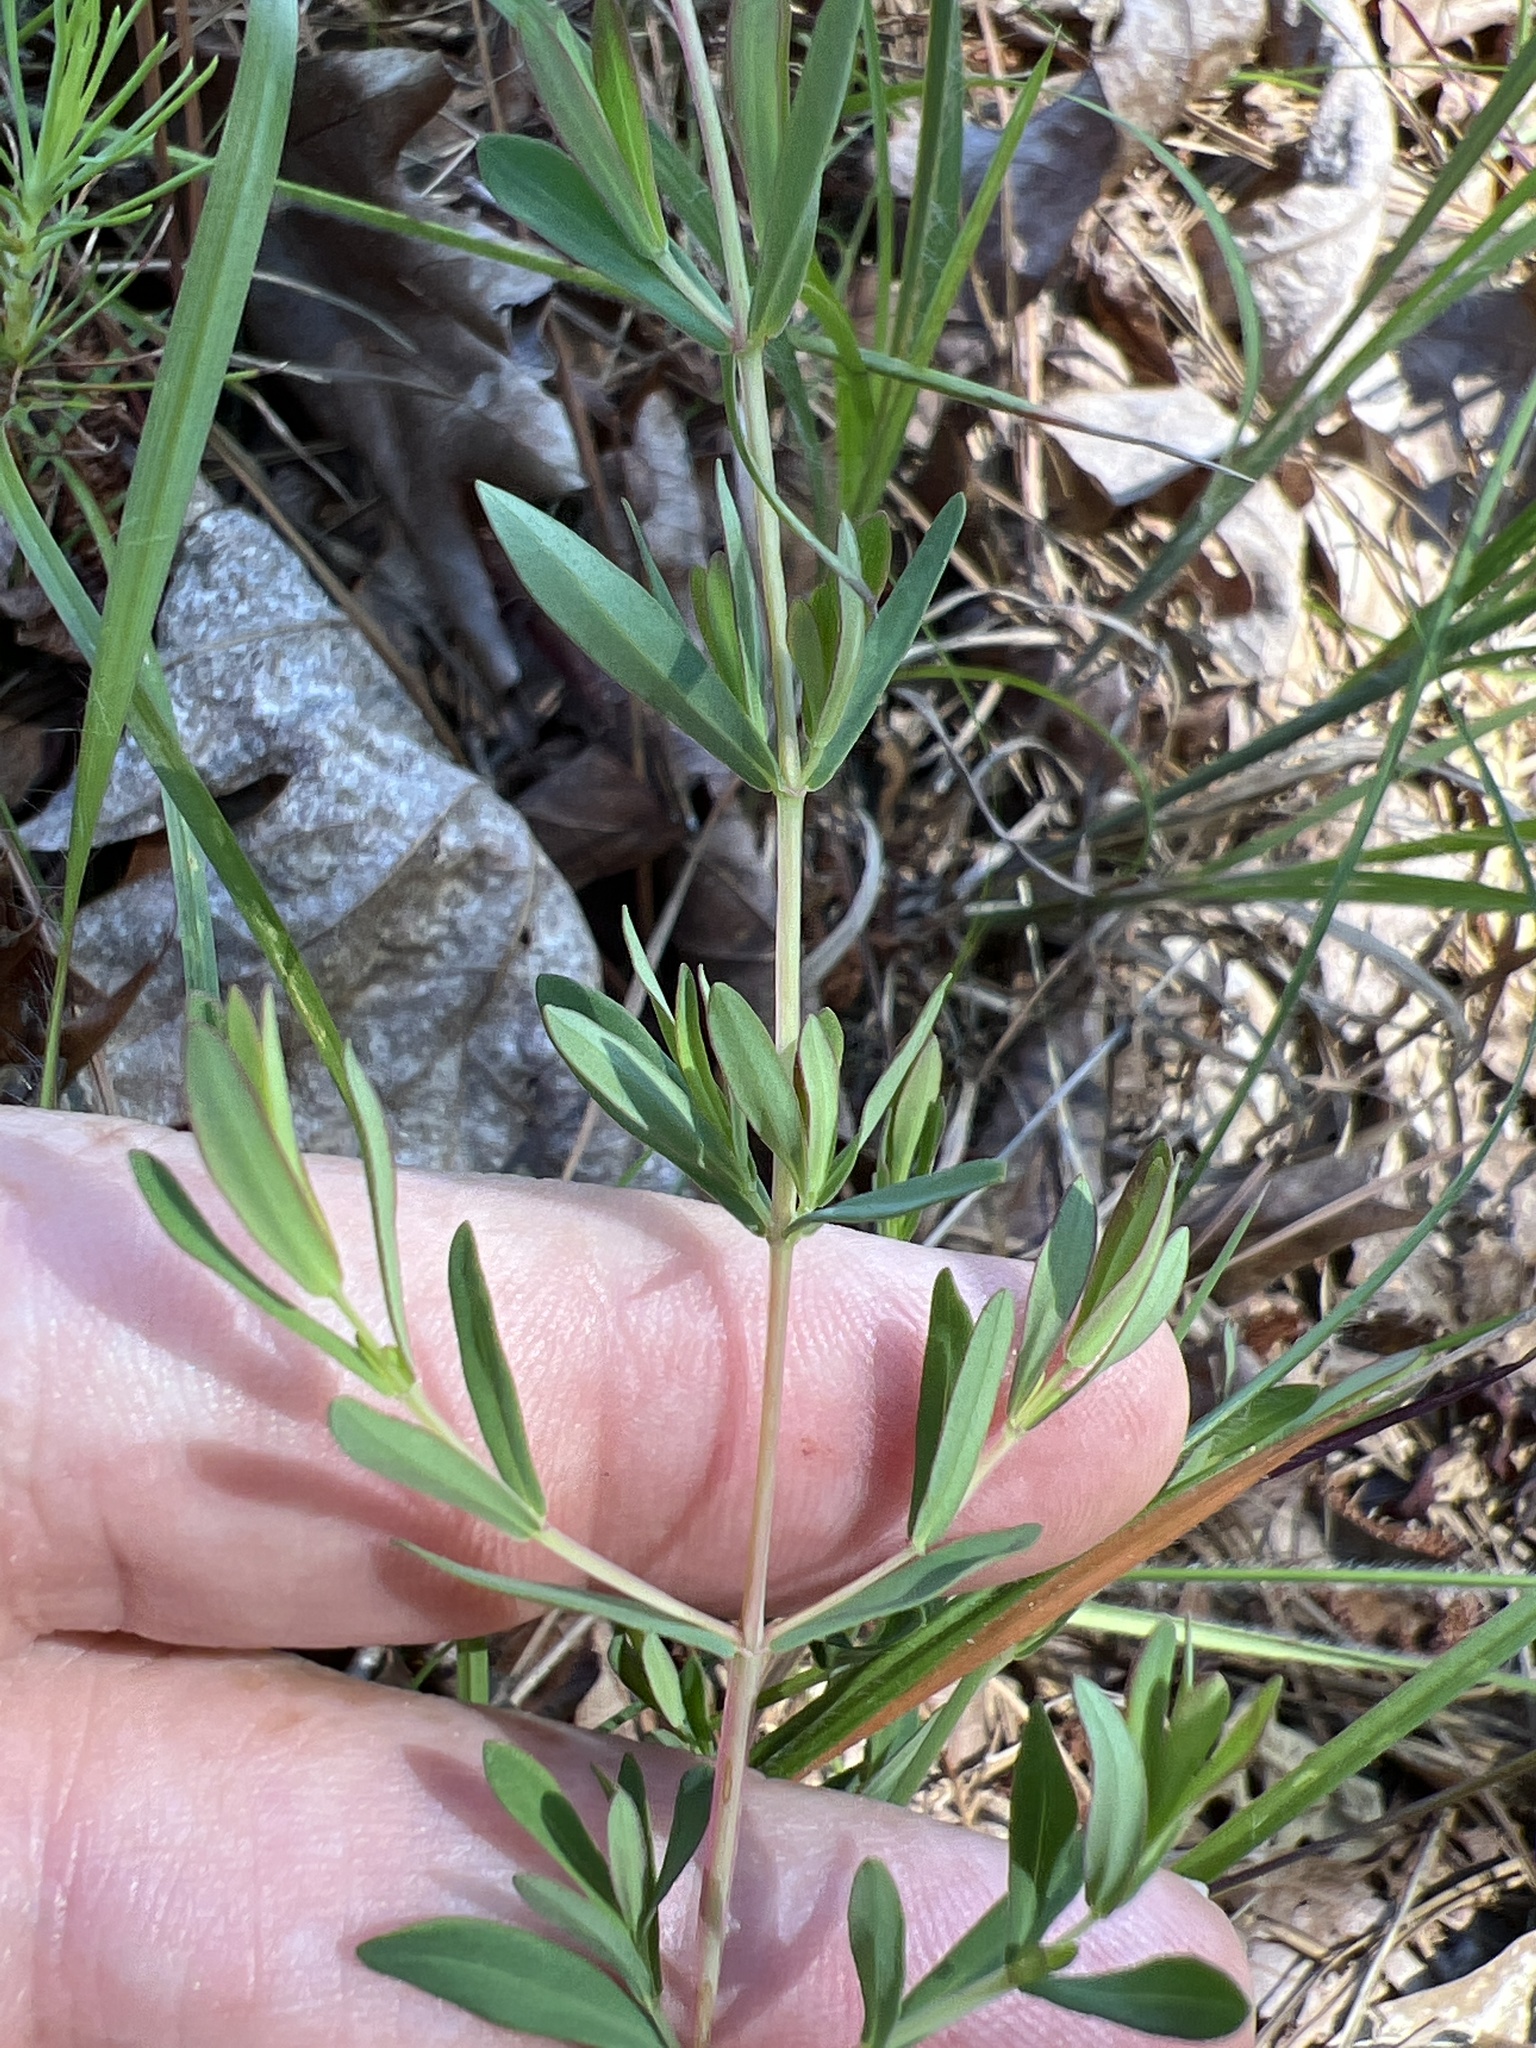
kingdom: Plantae
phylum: Tracheophyta
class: Magnoliopsida
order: Malpighiales
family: Hypericaceae
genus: Hypericum
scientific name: Hypericum hypericoides
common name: St. andrew's cross
